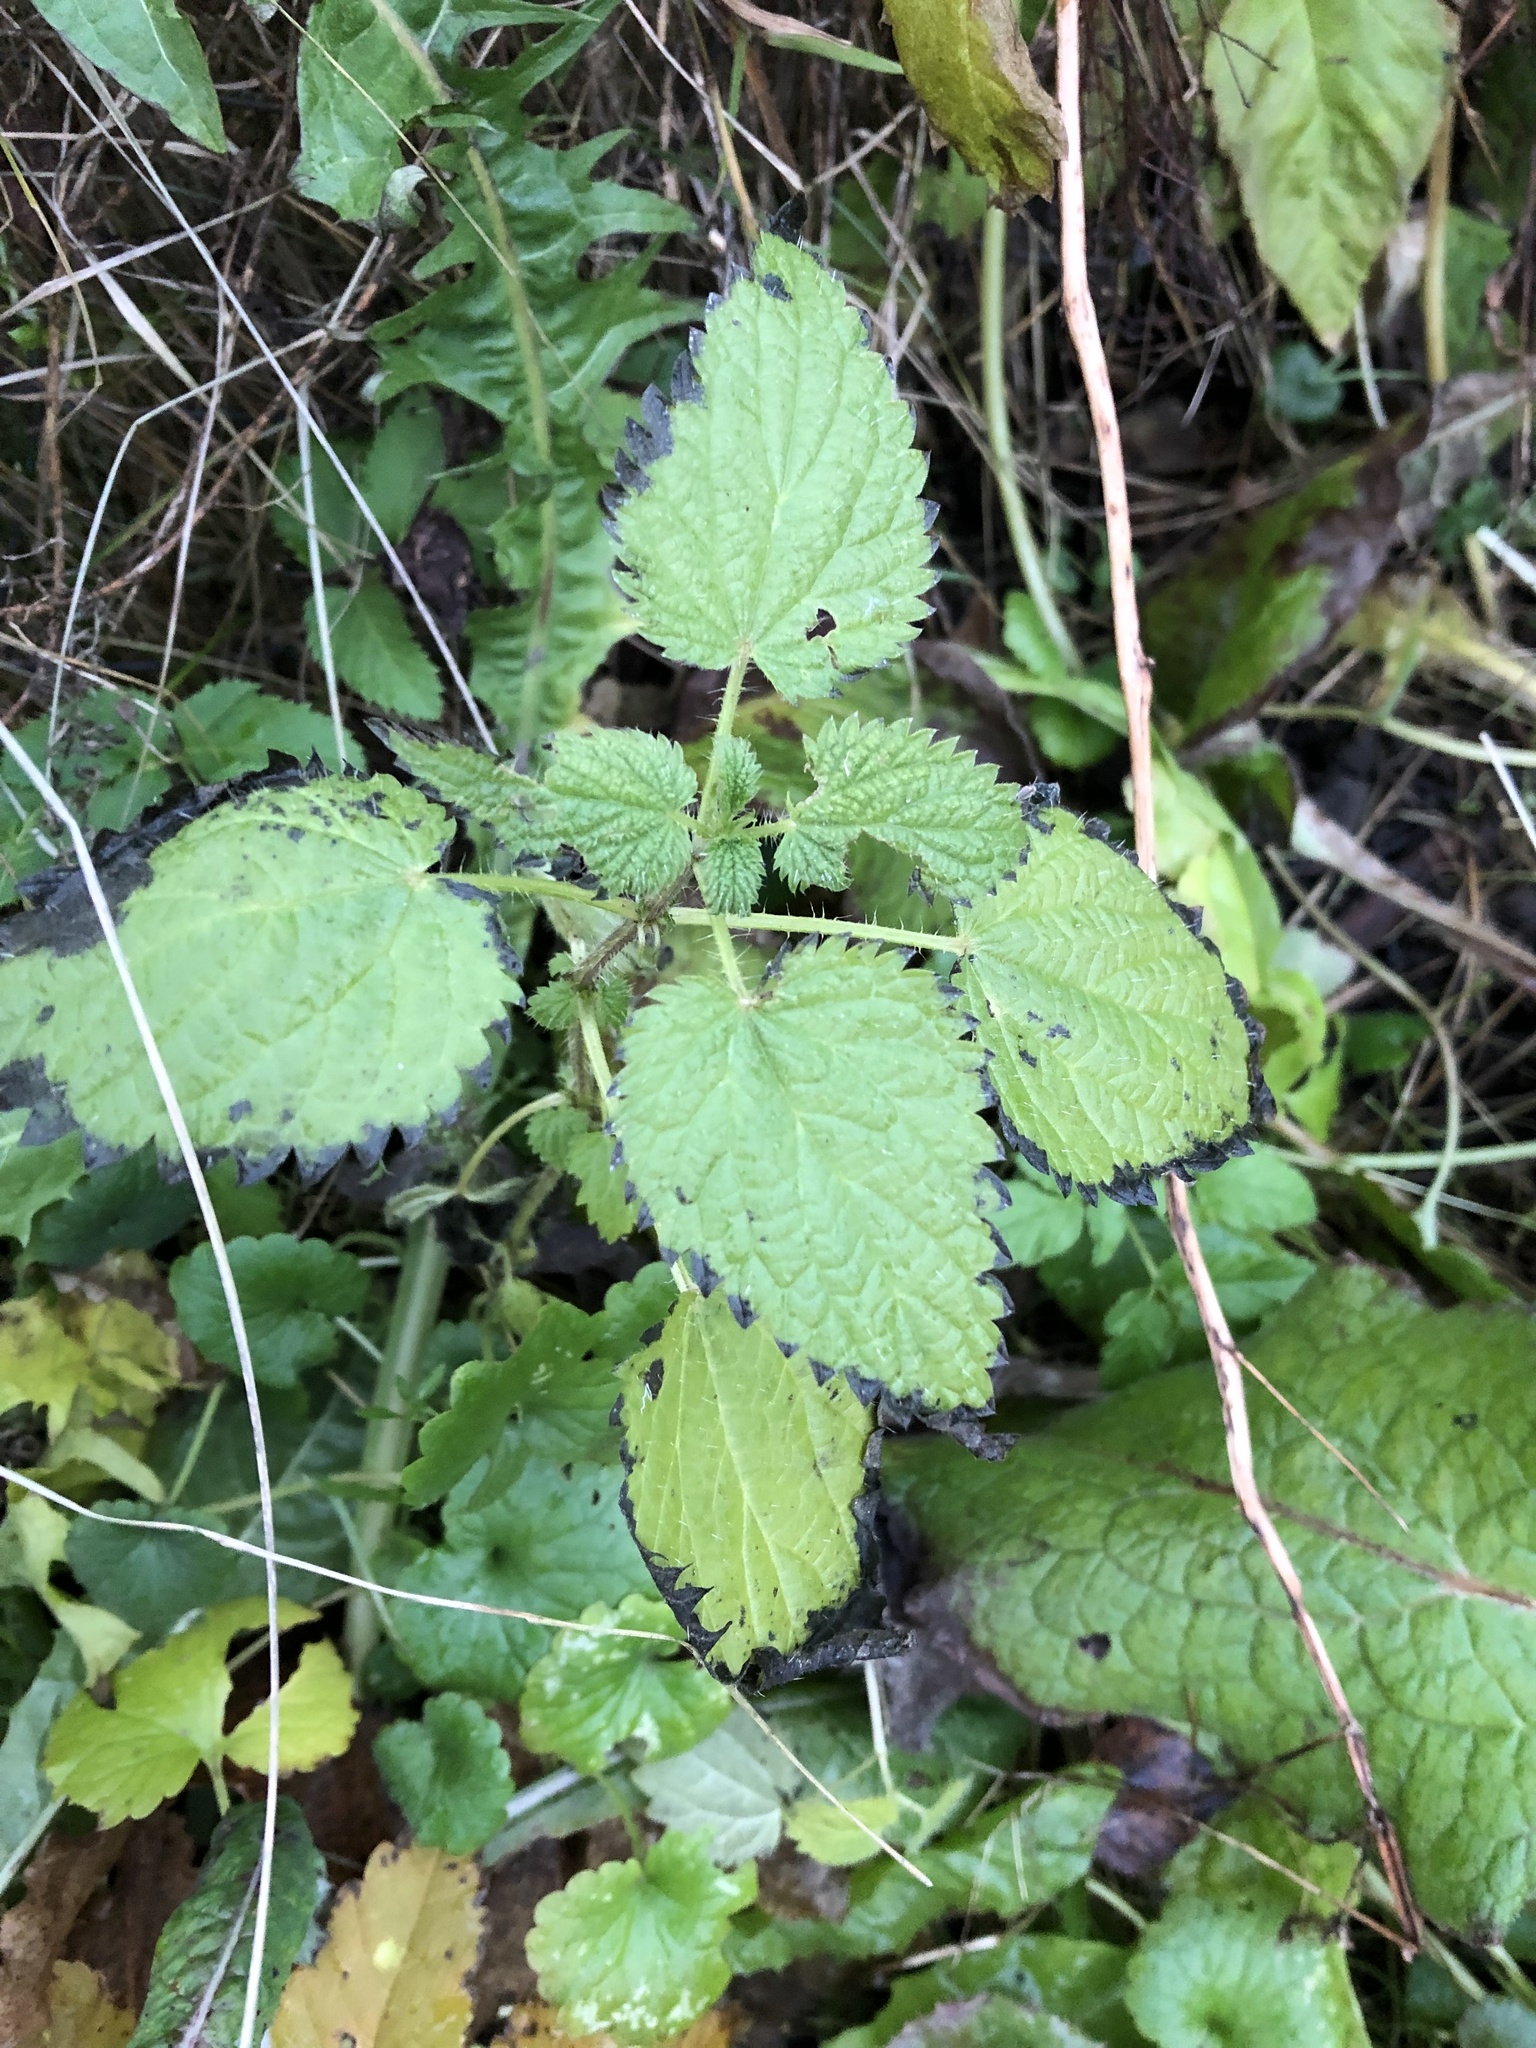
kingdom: Plantae
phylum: Tracheophyta
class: Magnoliopsida
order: Rosales
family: Urticaceae
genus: Urtica
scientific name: Urtica dioica
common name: Common nettle
